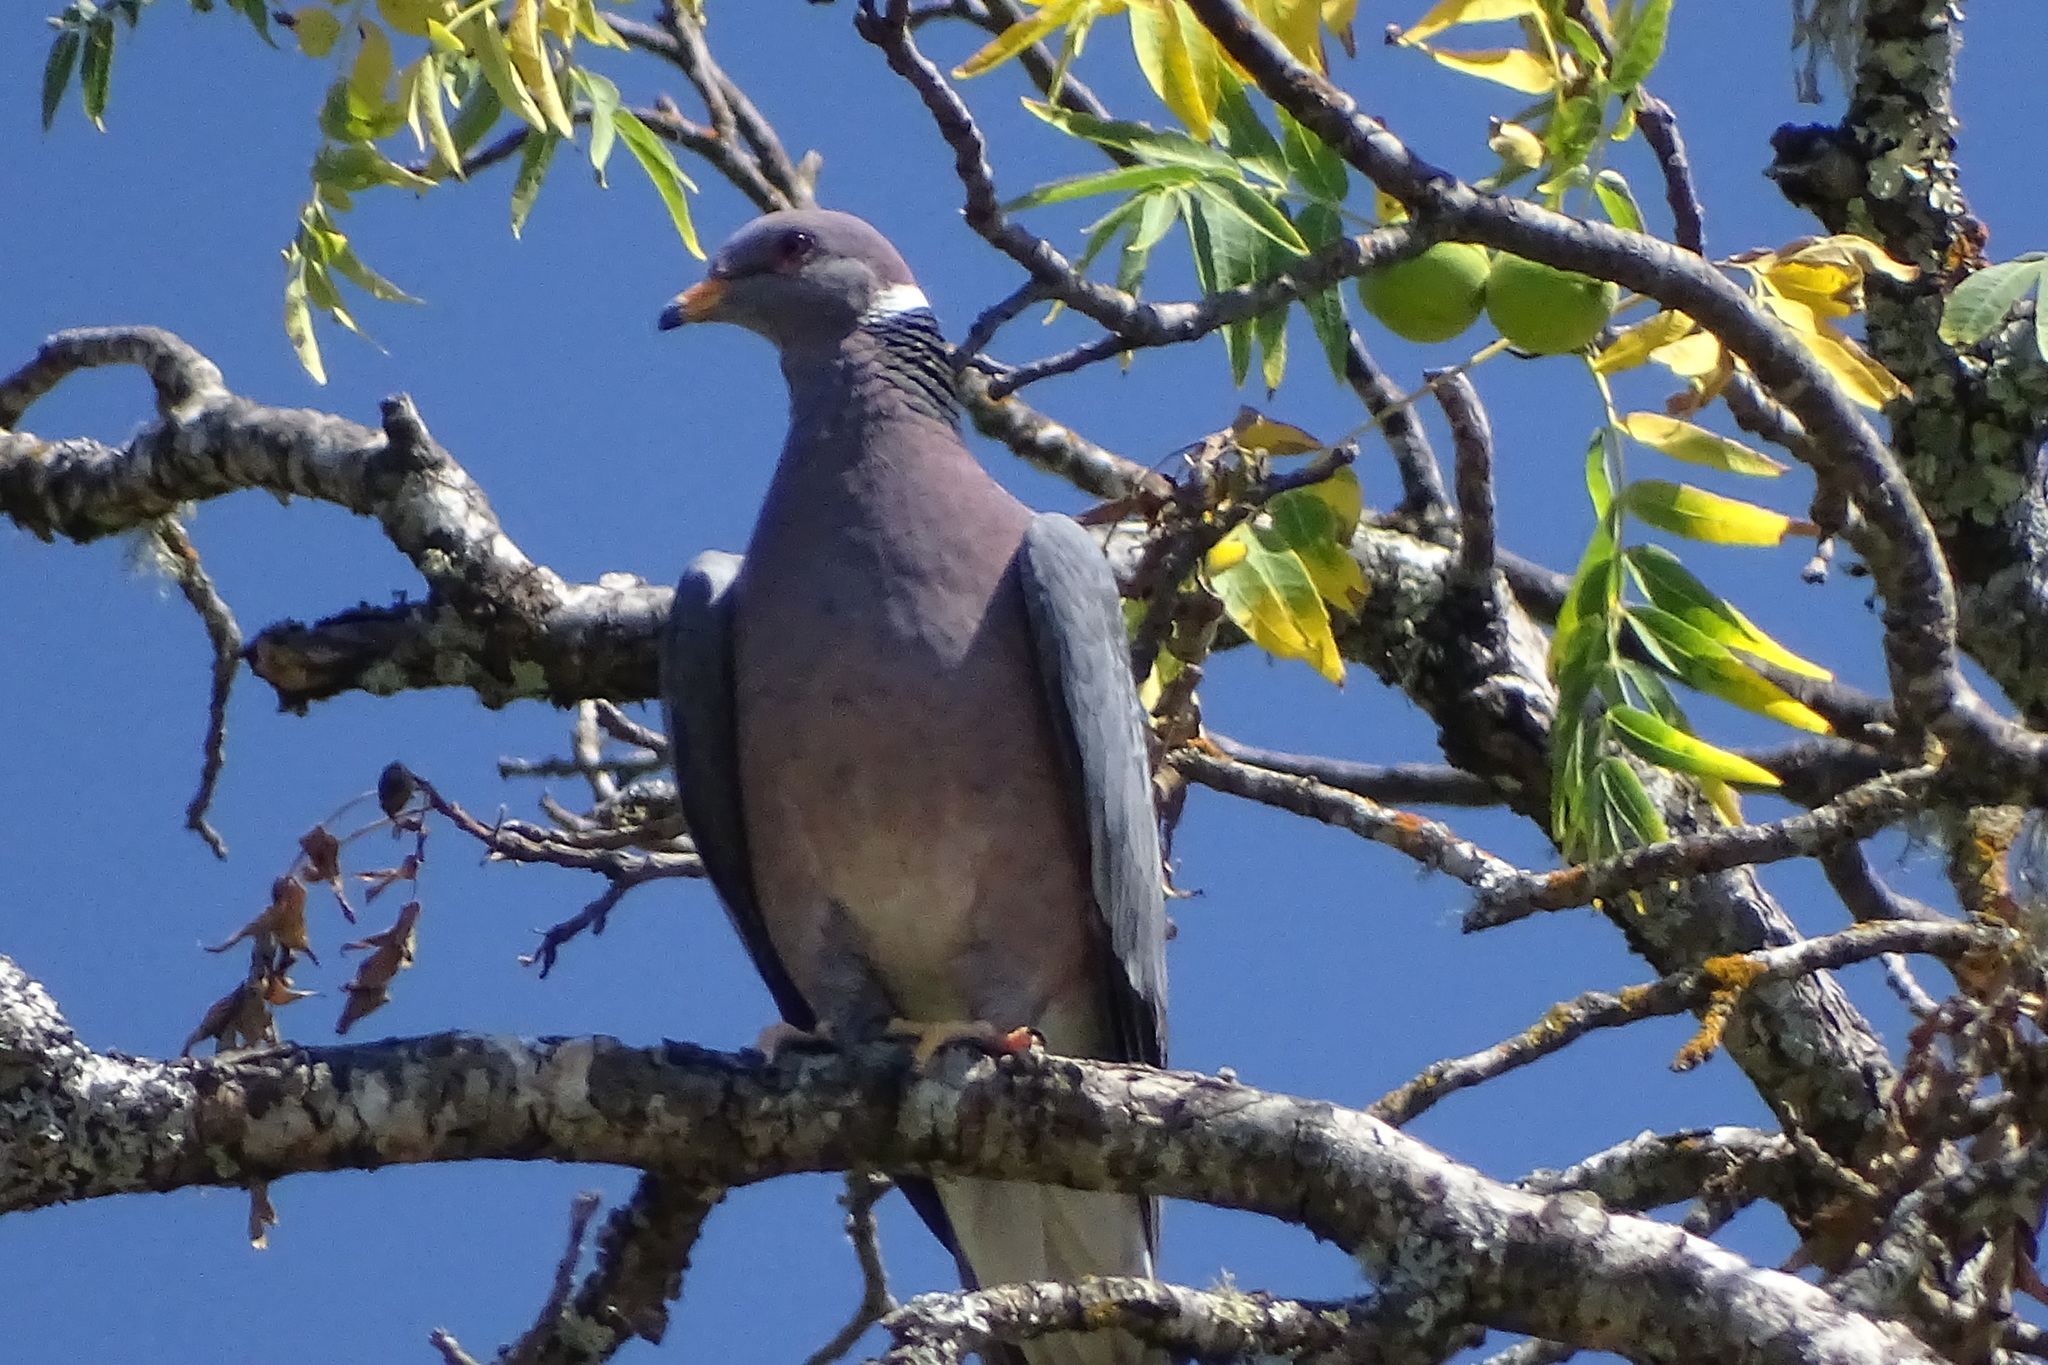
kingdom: Animalia
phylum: Chordata
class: Aves
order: Columbiformes
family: Columbidae
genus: Patagioenas
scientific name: Patagioenas fasciata
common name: Band-tailed pigeon
